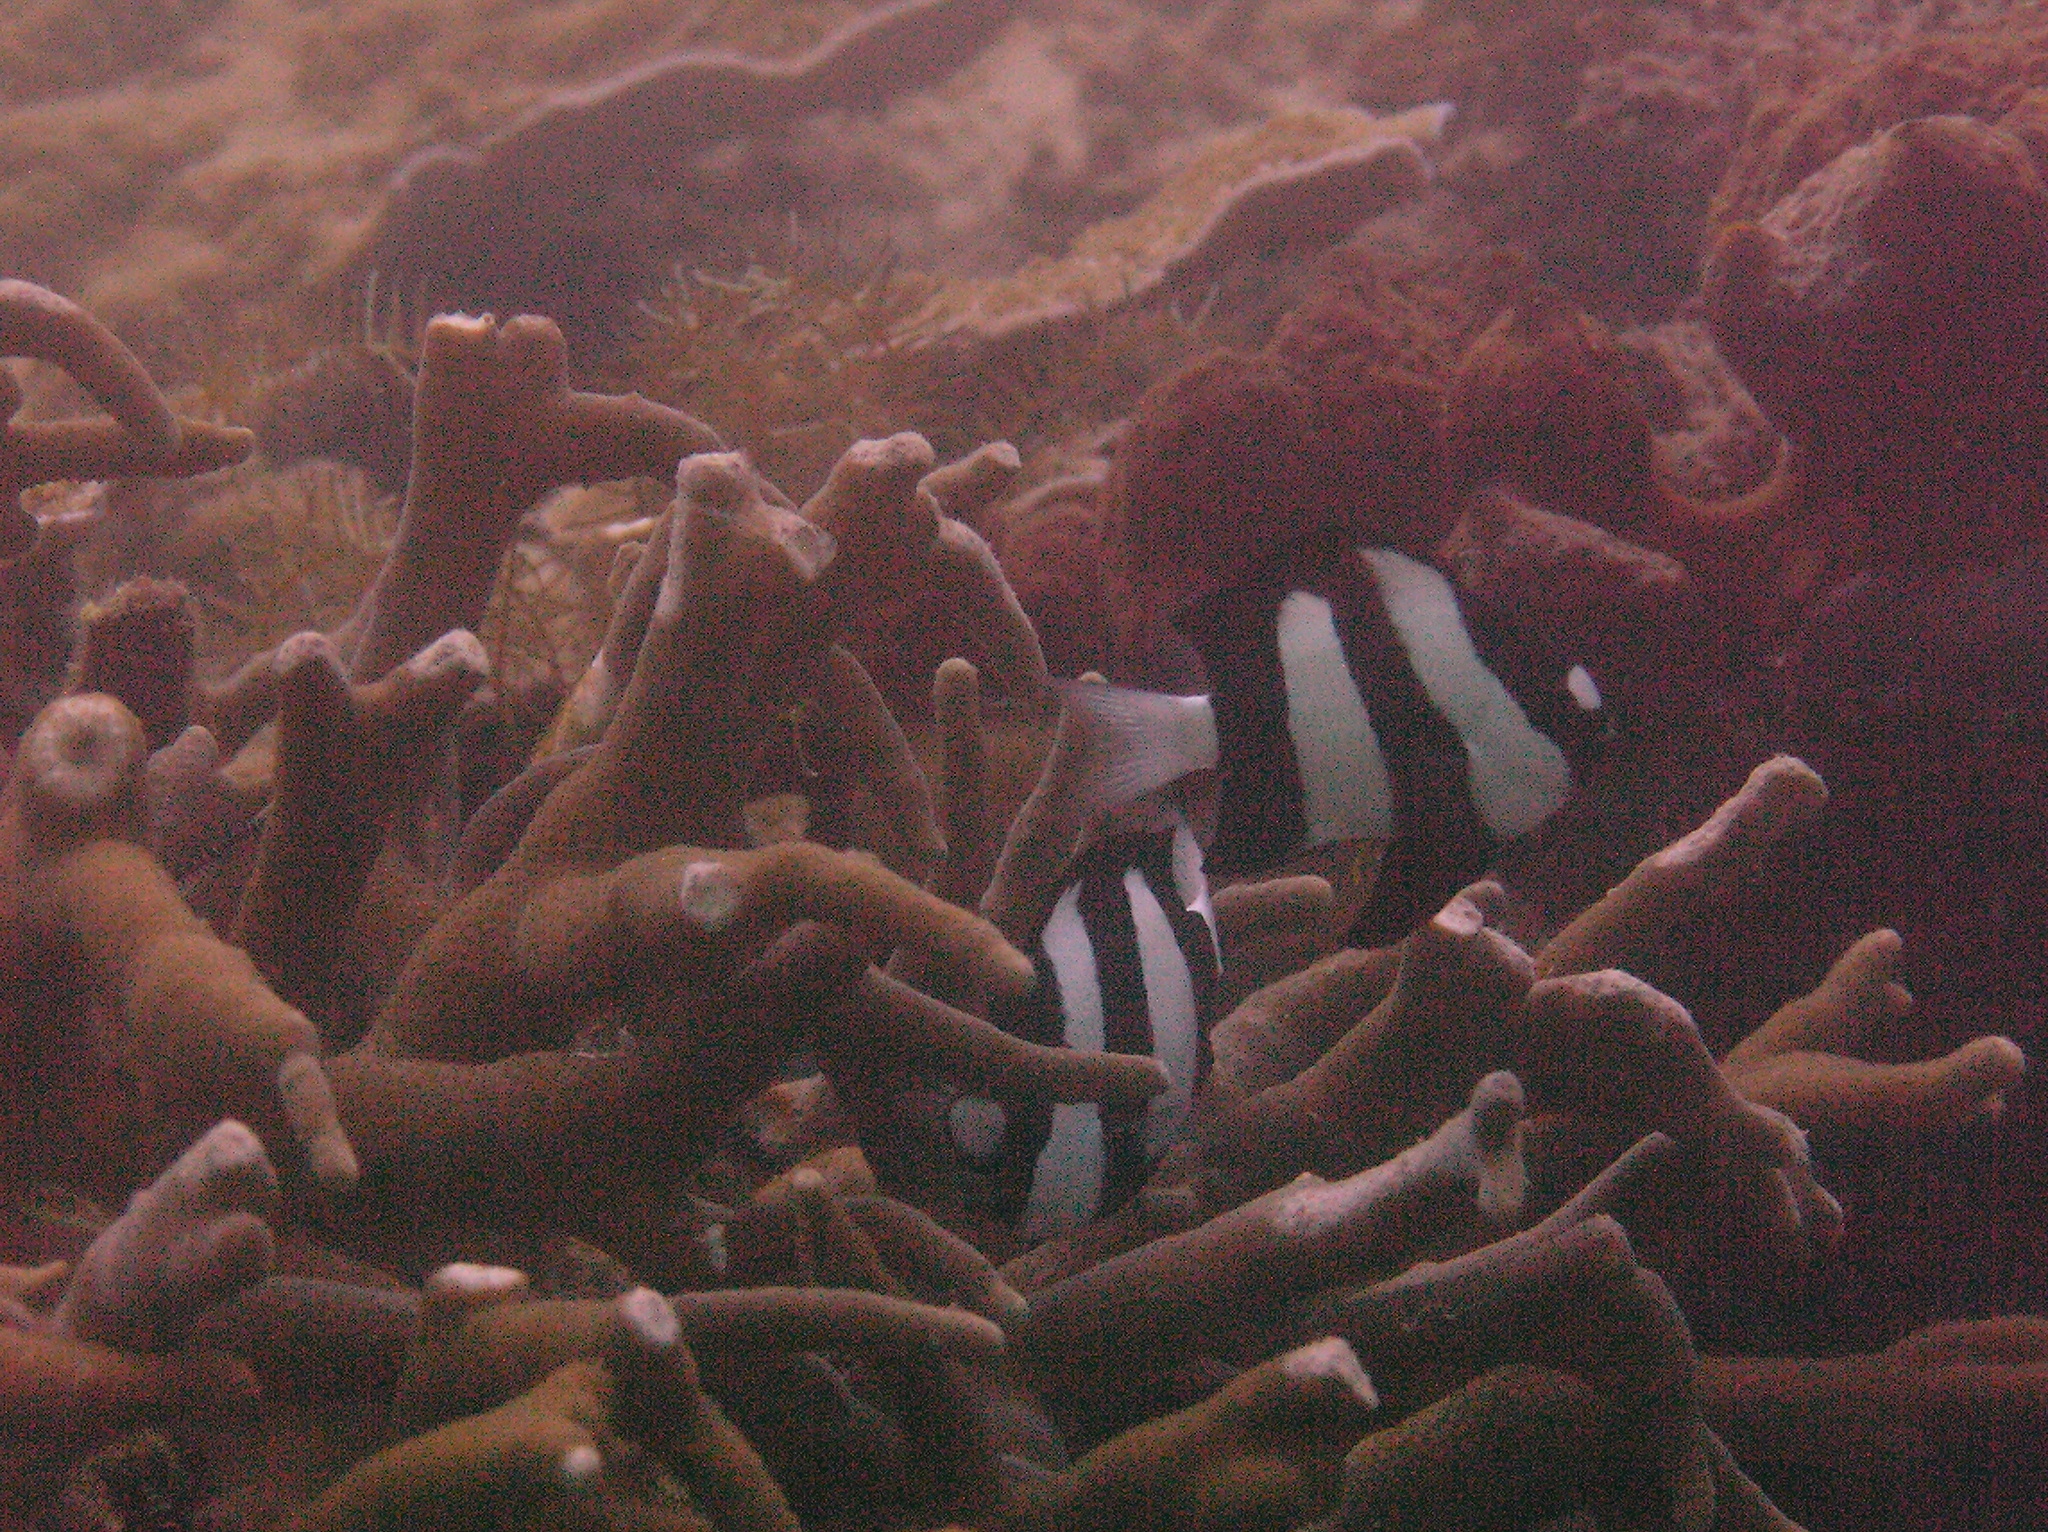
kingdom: Animalia
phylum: Chordata
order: Perciformes
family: Pomacentridae
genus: Dascyllus
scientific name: Dascyllus aruanus
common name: Humbug dascyllus
